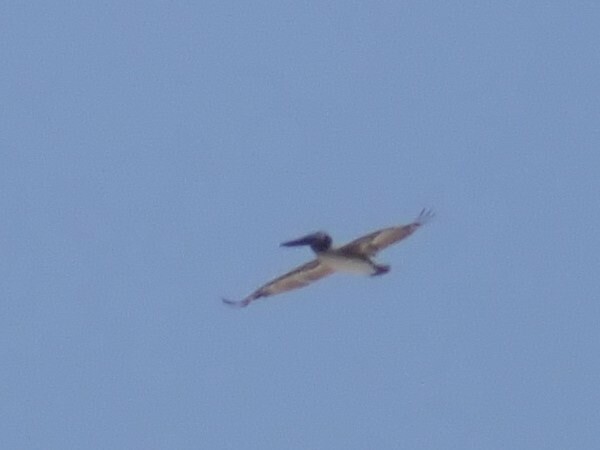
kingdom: Animalia
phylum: Chordata
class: Aves
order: Pelecaniformes
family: Pelecanidae
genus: Pelecanus
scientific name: Pelecanus occidentalis
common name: Brown pelican
